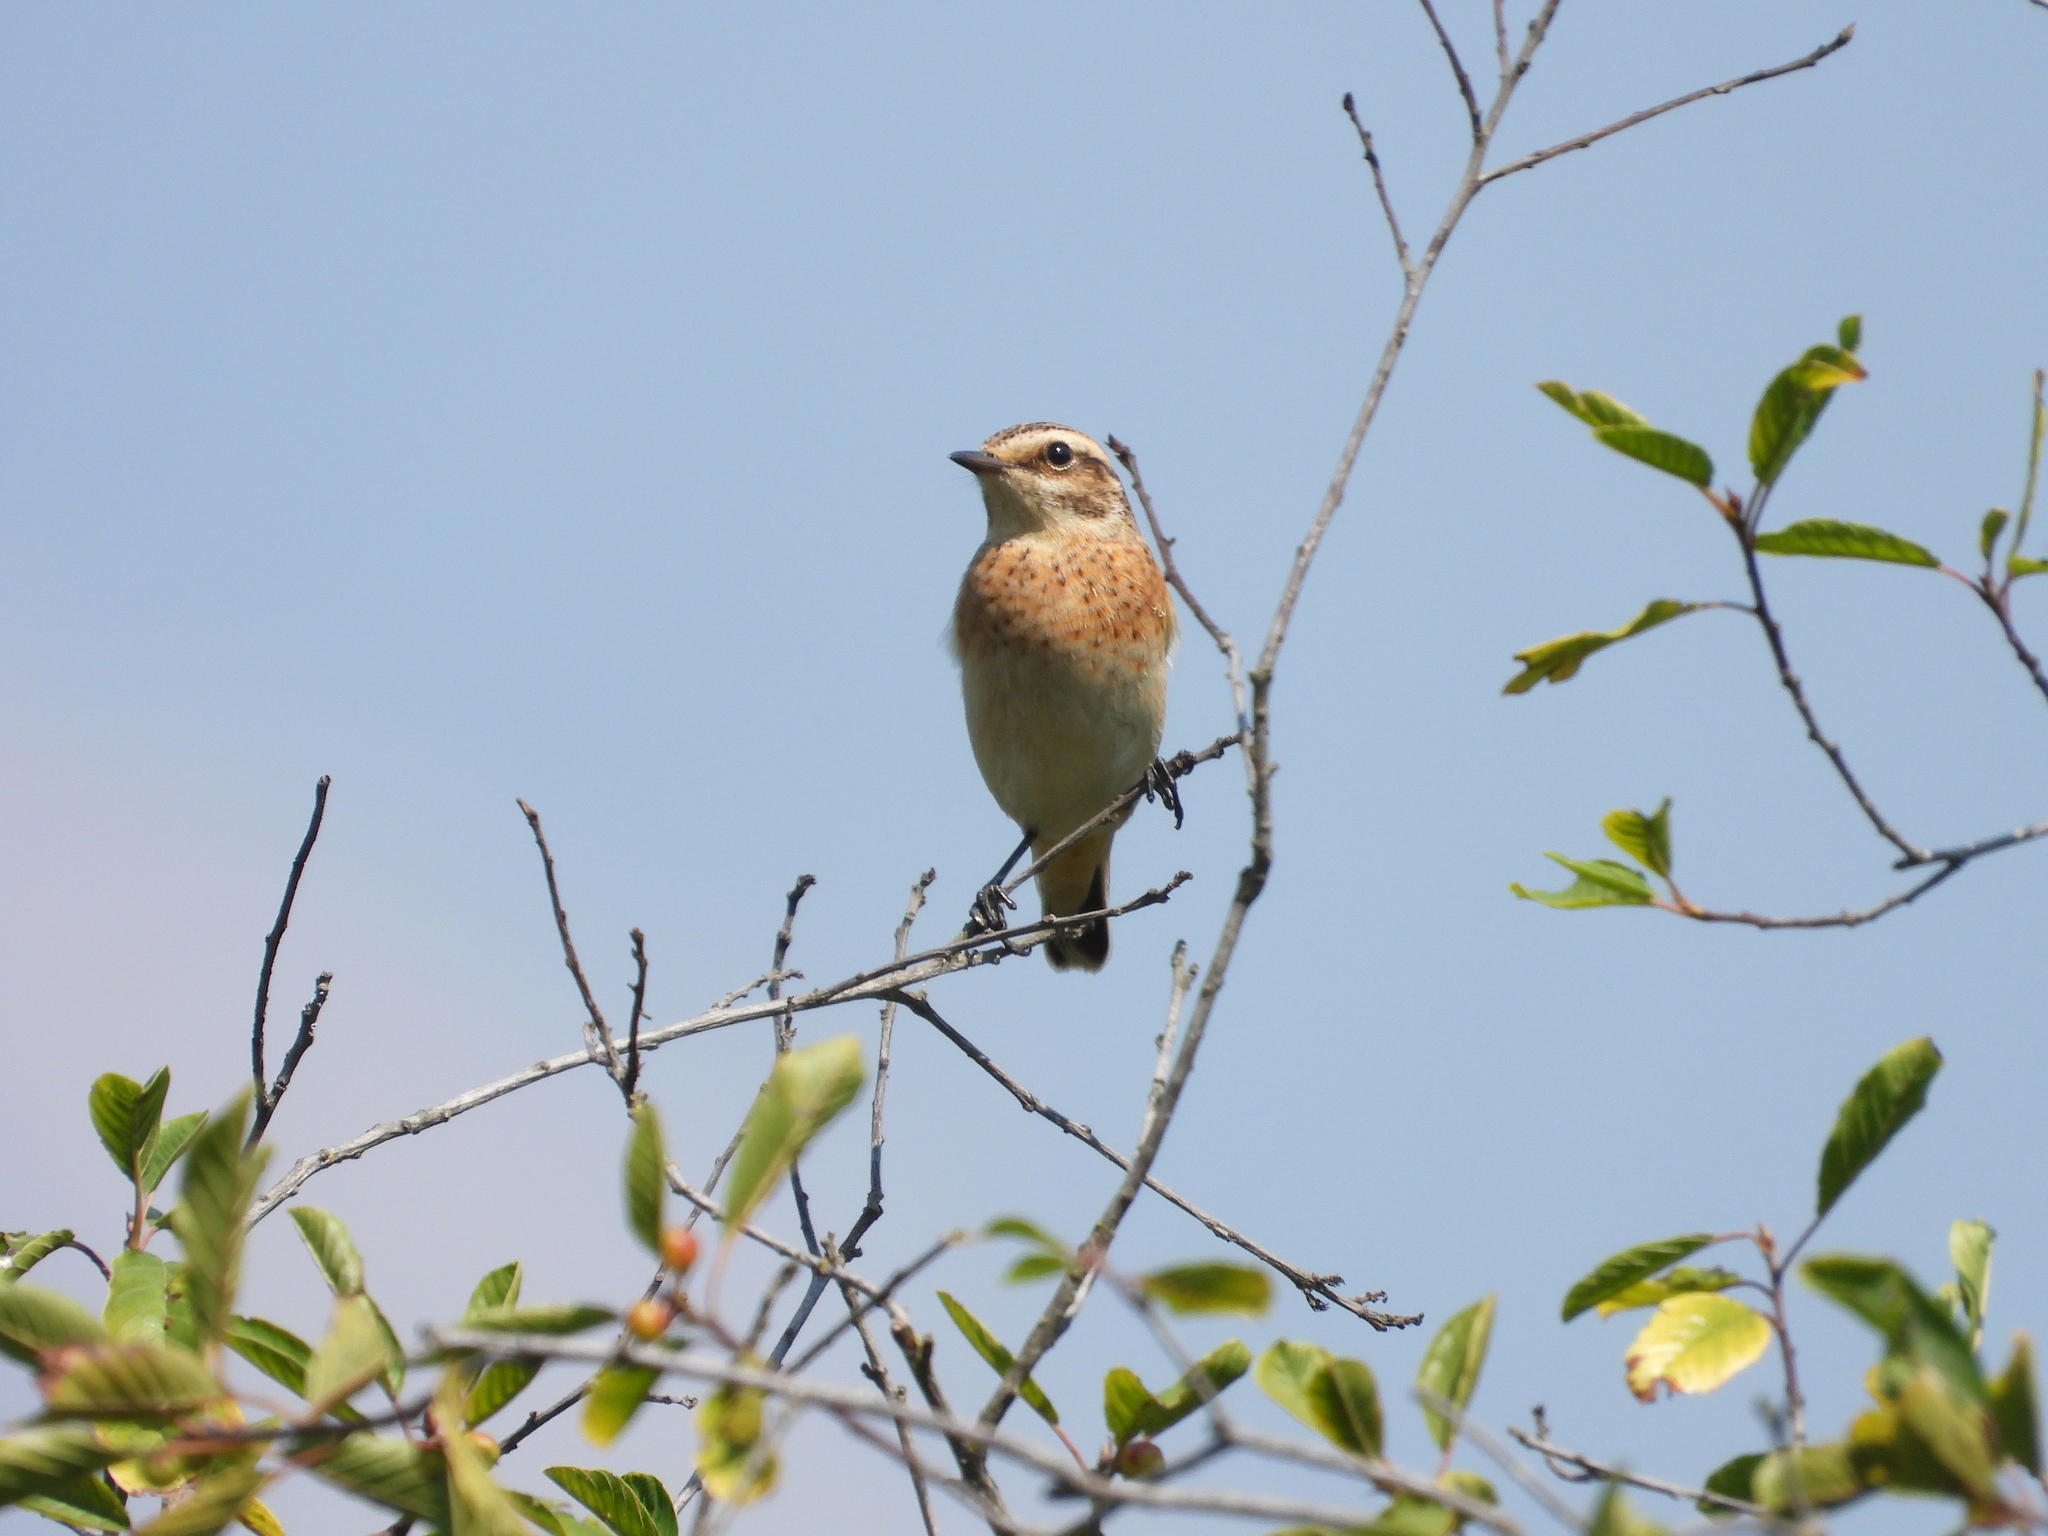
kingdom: Animalia
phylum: Chordata
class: Aves
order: Passeriformes
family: Muscicapidae
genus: Saxicola
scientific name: Saxicola rubetra
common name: Whinchat
